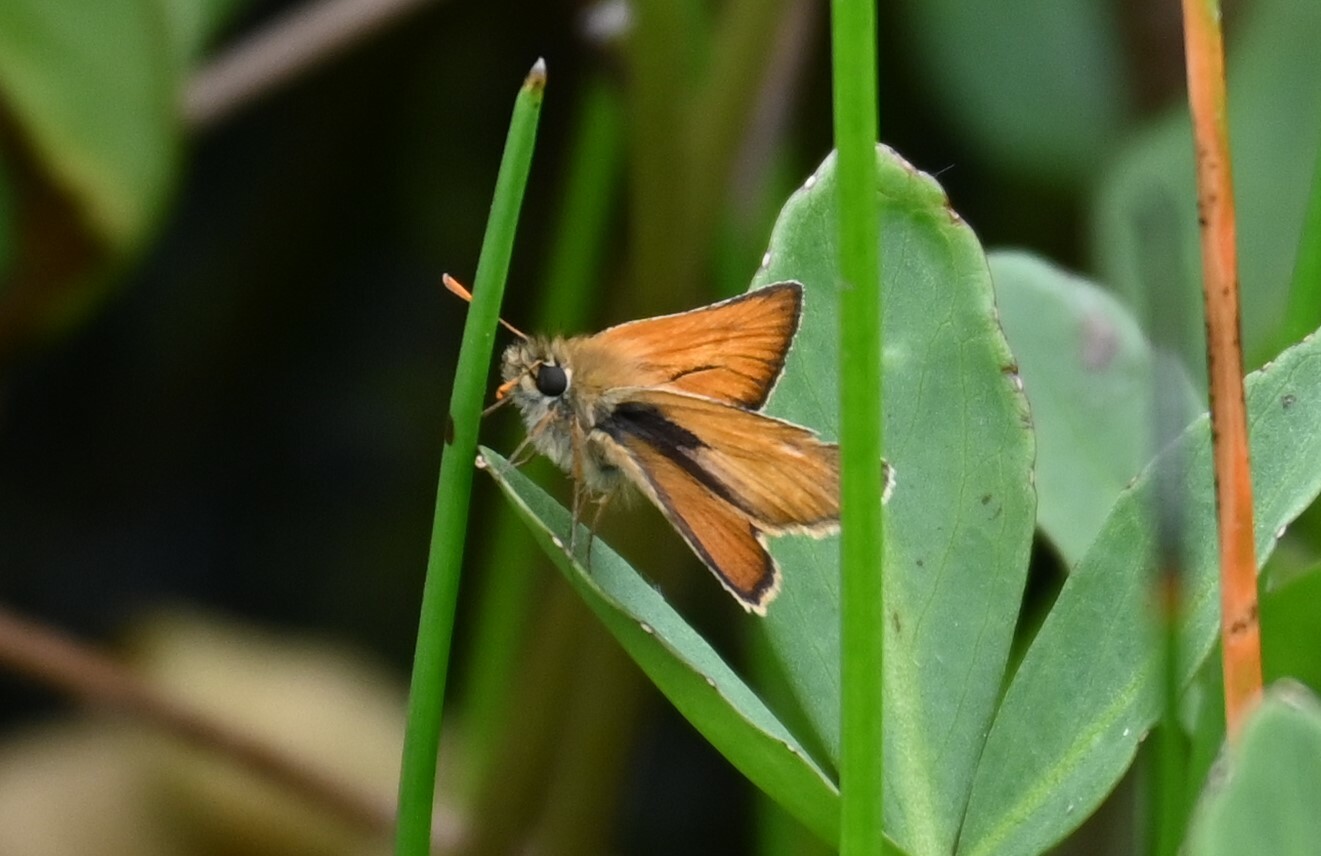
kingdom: Animalia
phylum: Arthropoda
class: Insecta
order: Lepidoptera
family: Hesperiidae
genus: Thymelicus
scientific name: Thymelicus sylvestris
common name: Small skipper
